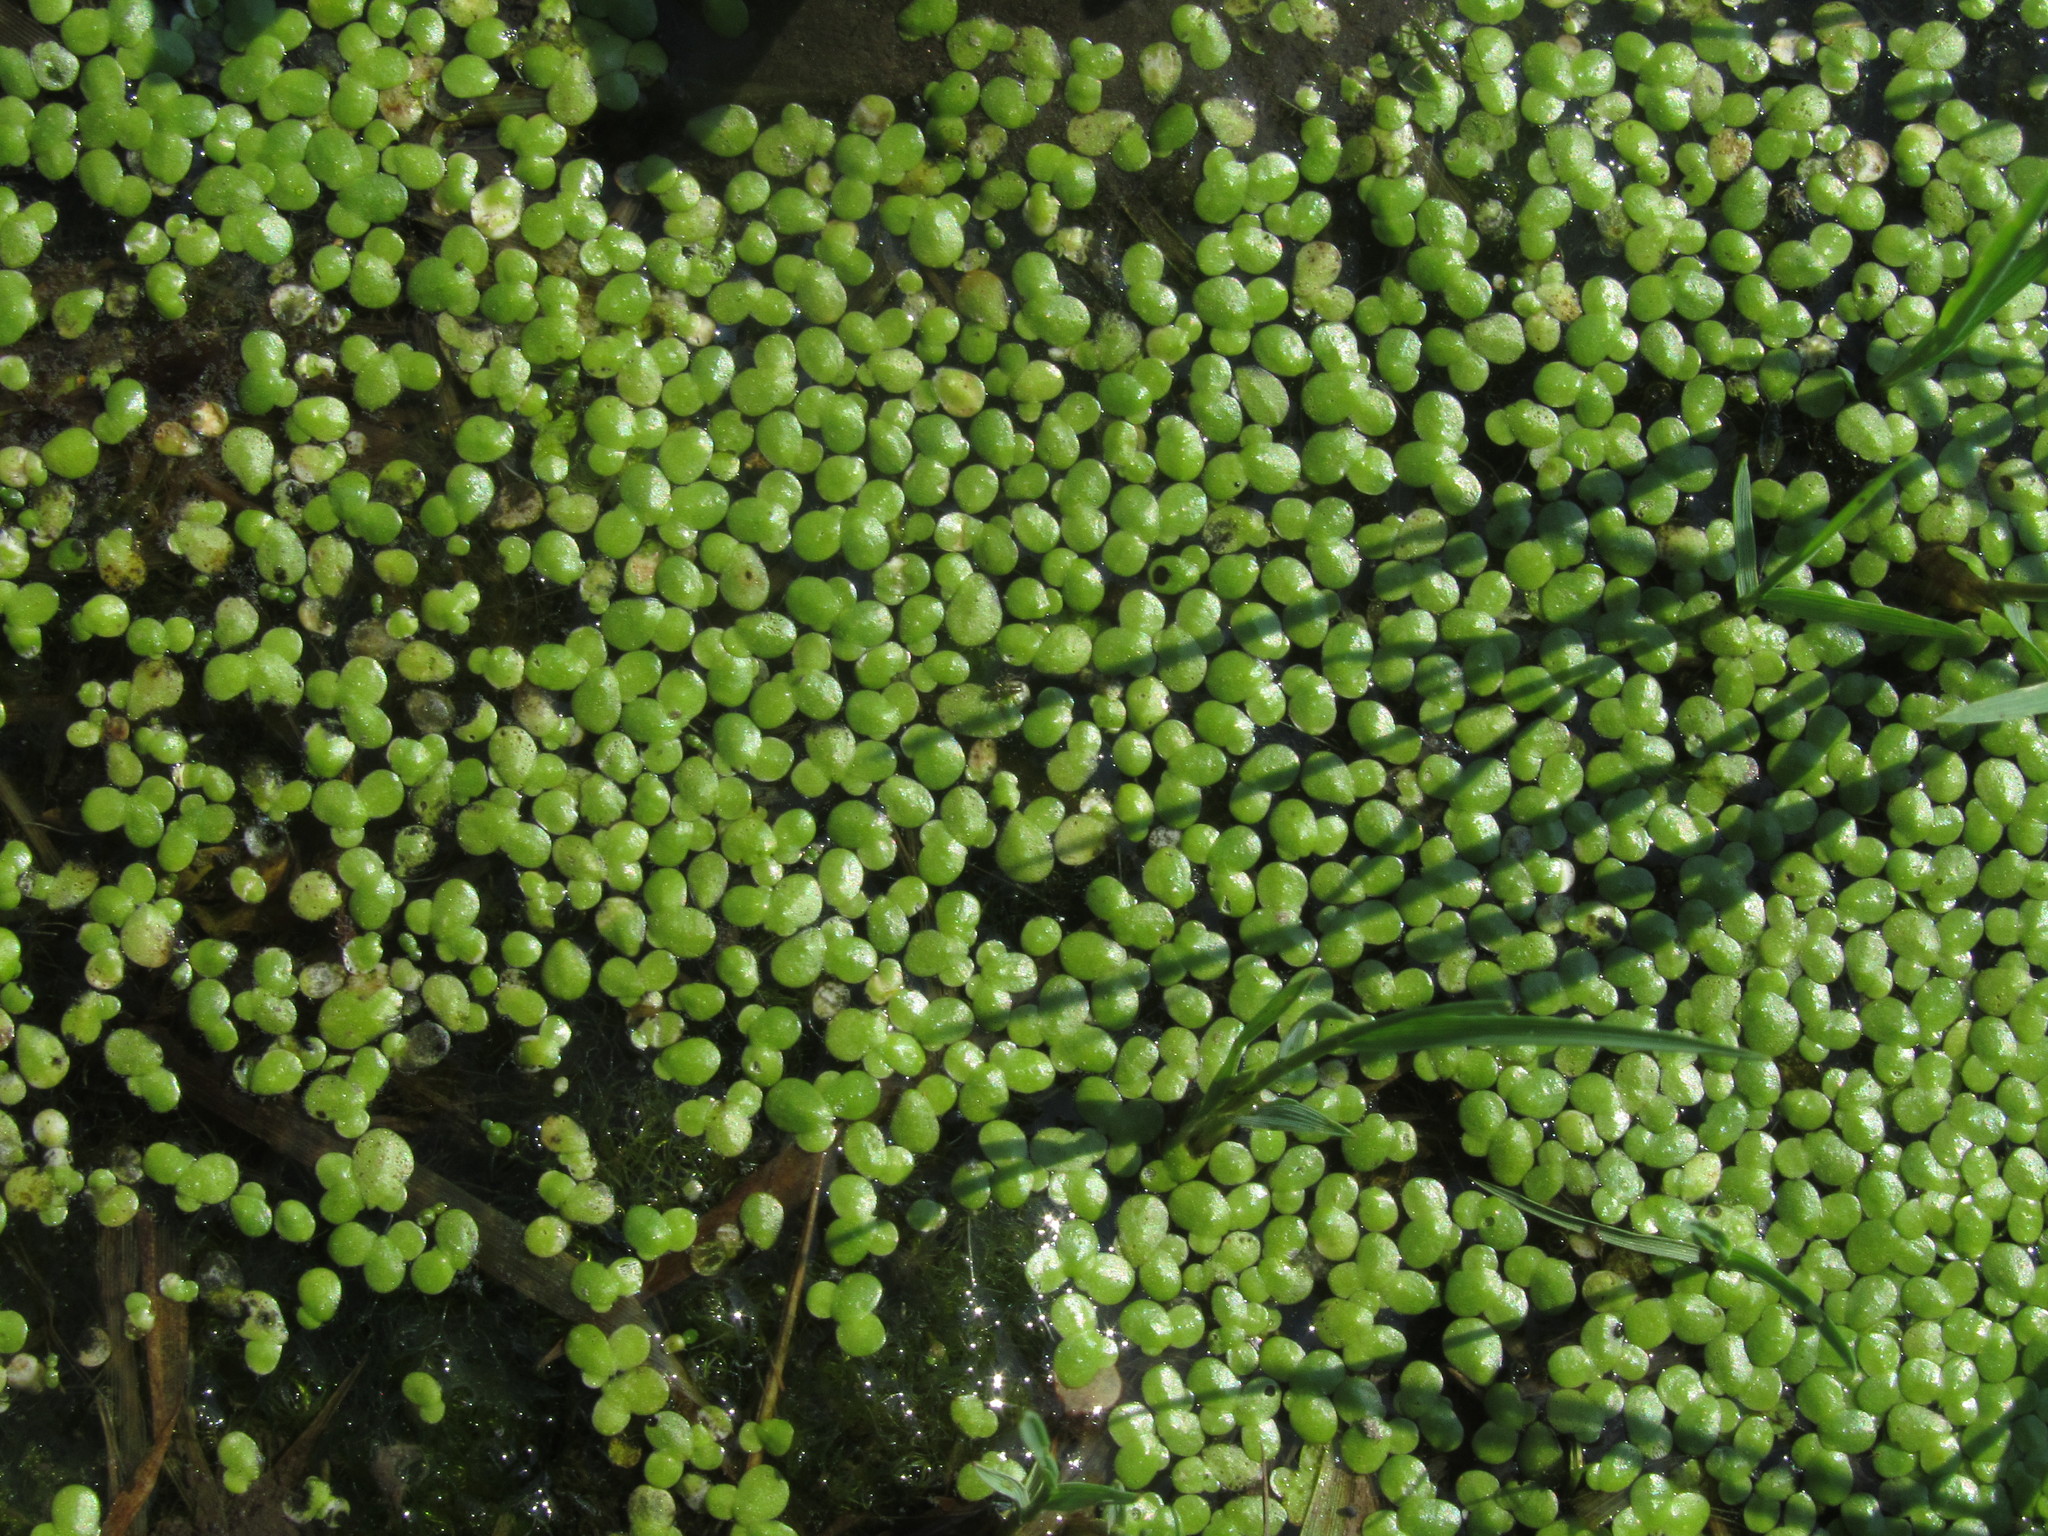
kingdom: Plantae
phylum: Tracheophyta
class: Liliopsida
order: Alismatales
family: Araceae
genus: Lemna
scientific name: Lemna
